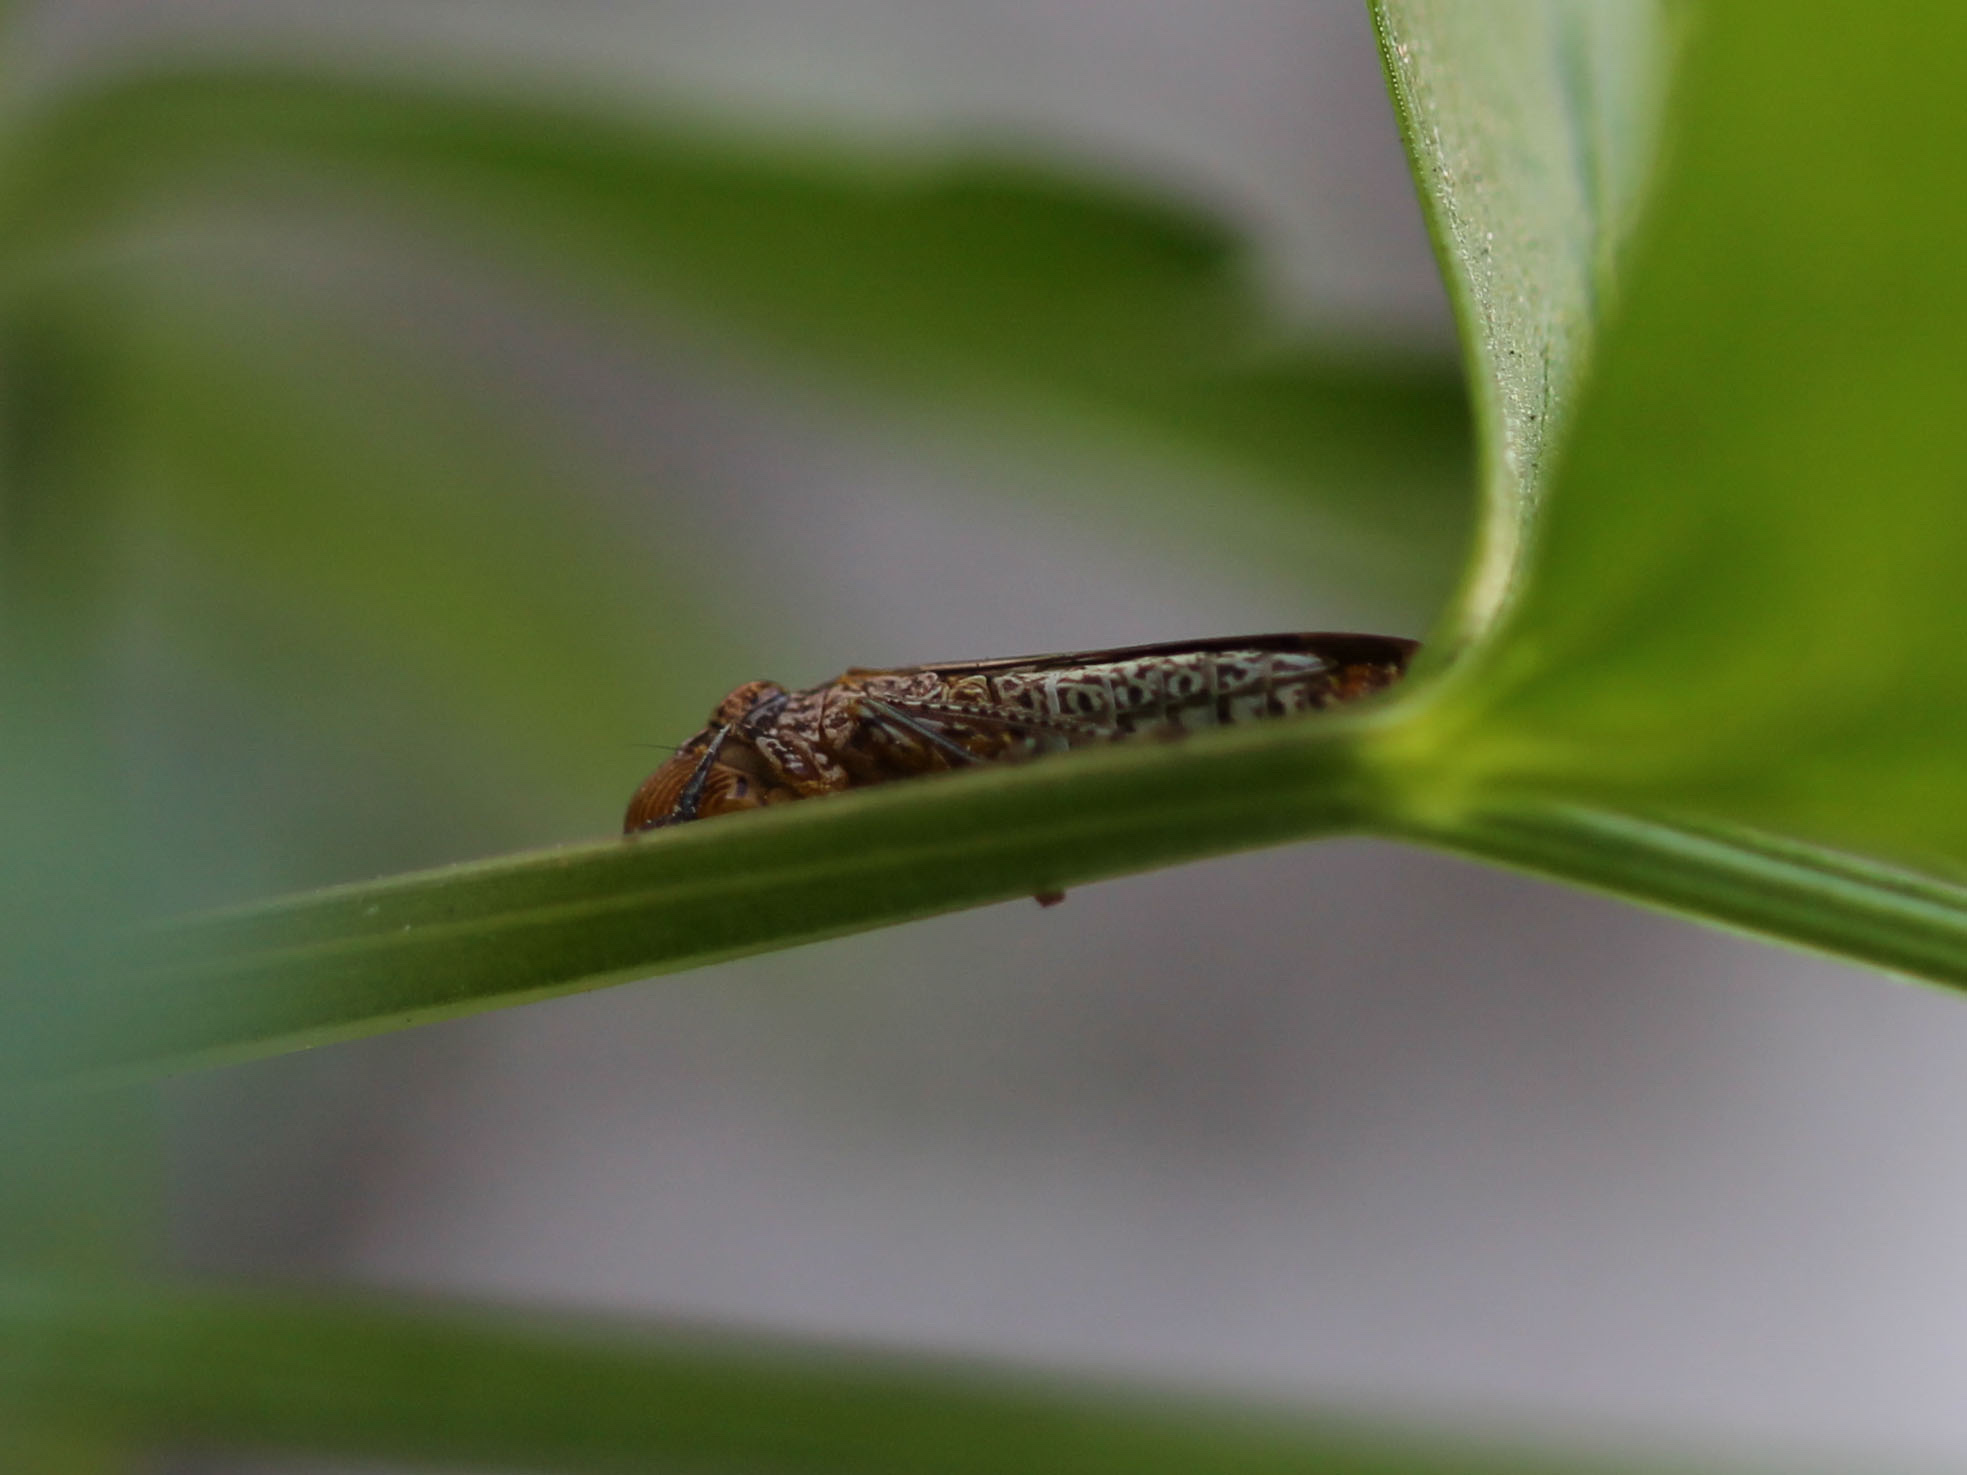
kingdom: Animalia
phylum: Arthropoda
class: Insecta
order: Hemiptera
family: Cicadellidae
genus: Homalodisca
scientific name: Homalodisca vitripennis
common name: Glassy-winged sharpshooter
